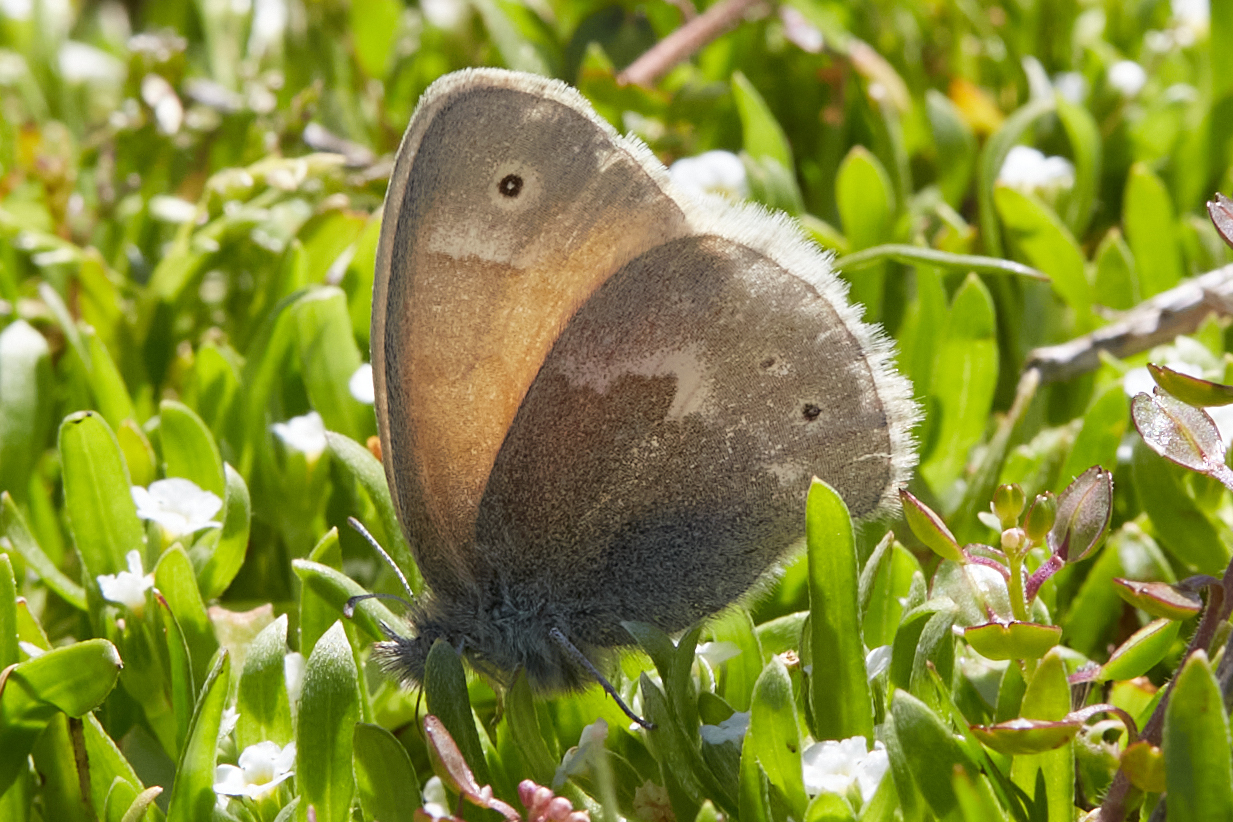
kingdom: Animalia
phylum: Arthropoda
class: Insecta
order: Lepidoptera
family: Nymphalidae
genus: Coenonympha
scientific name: Coenonympha california
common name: Common ringlet
